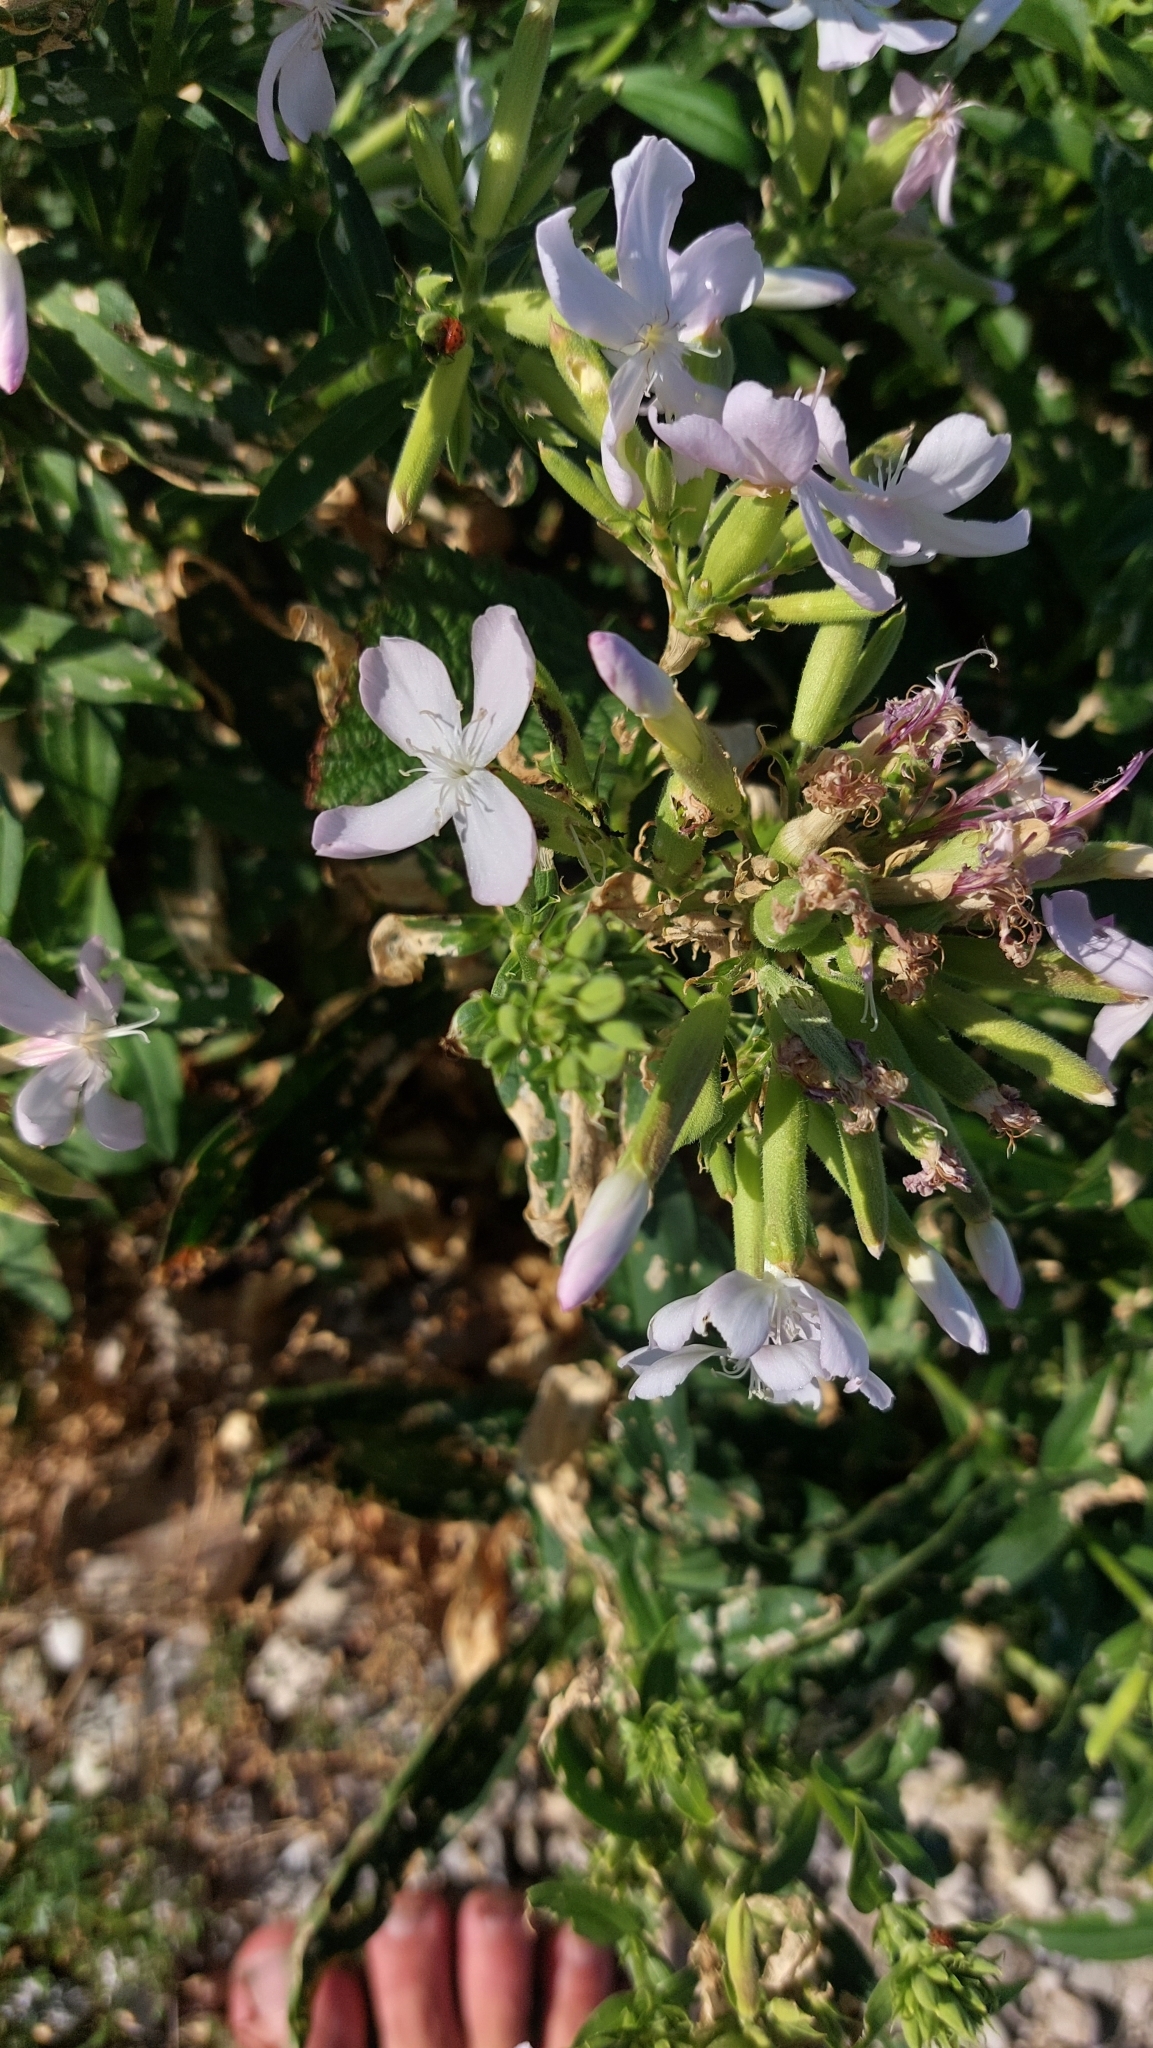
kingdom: Plantae
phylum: Tracheophyta
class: Magnoliopsida
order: Caryophyllales
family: Caryophyllaceae
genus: Saponaria
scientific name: Saponaria officinalis
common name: Soapwort
